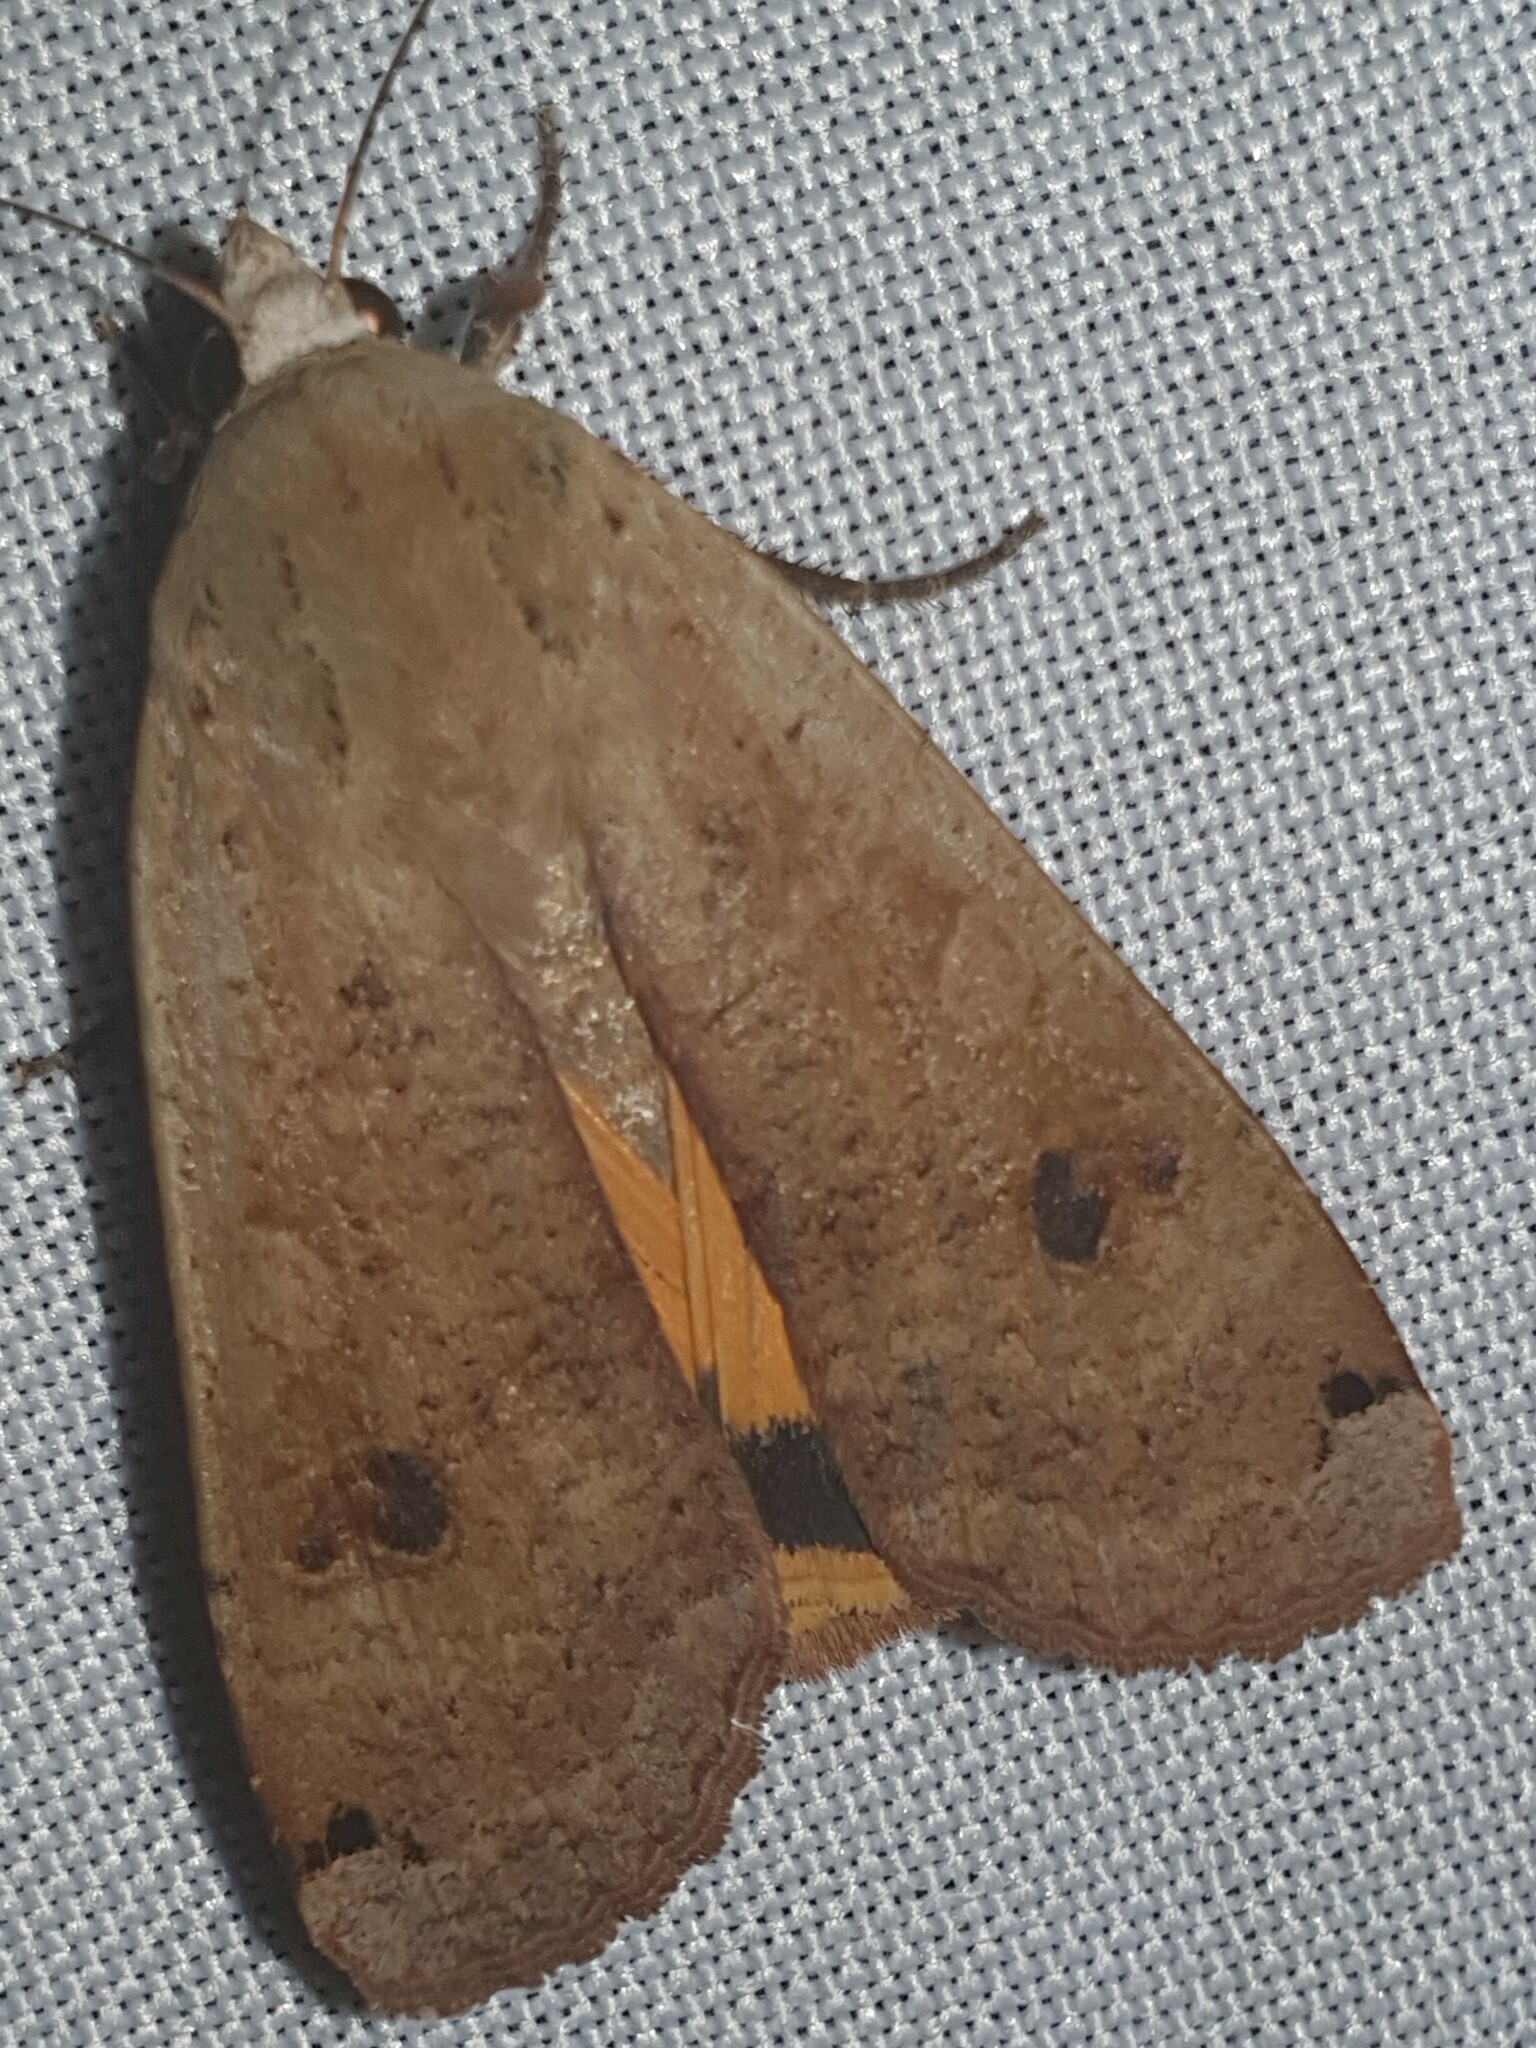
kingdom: Animalia
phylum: Arthropoda
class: Insecta
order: Lepidoptera
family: Noctuidae
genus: Noctua
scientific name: Noctua pronuba
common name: Large yellow underwing
